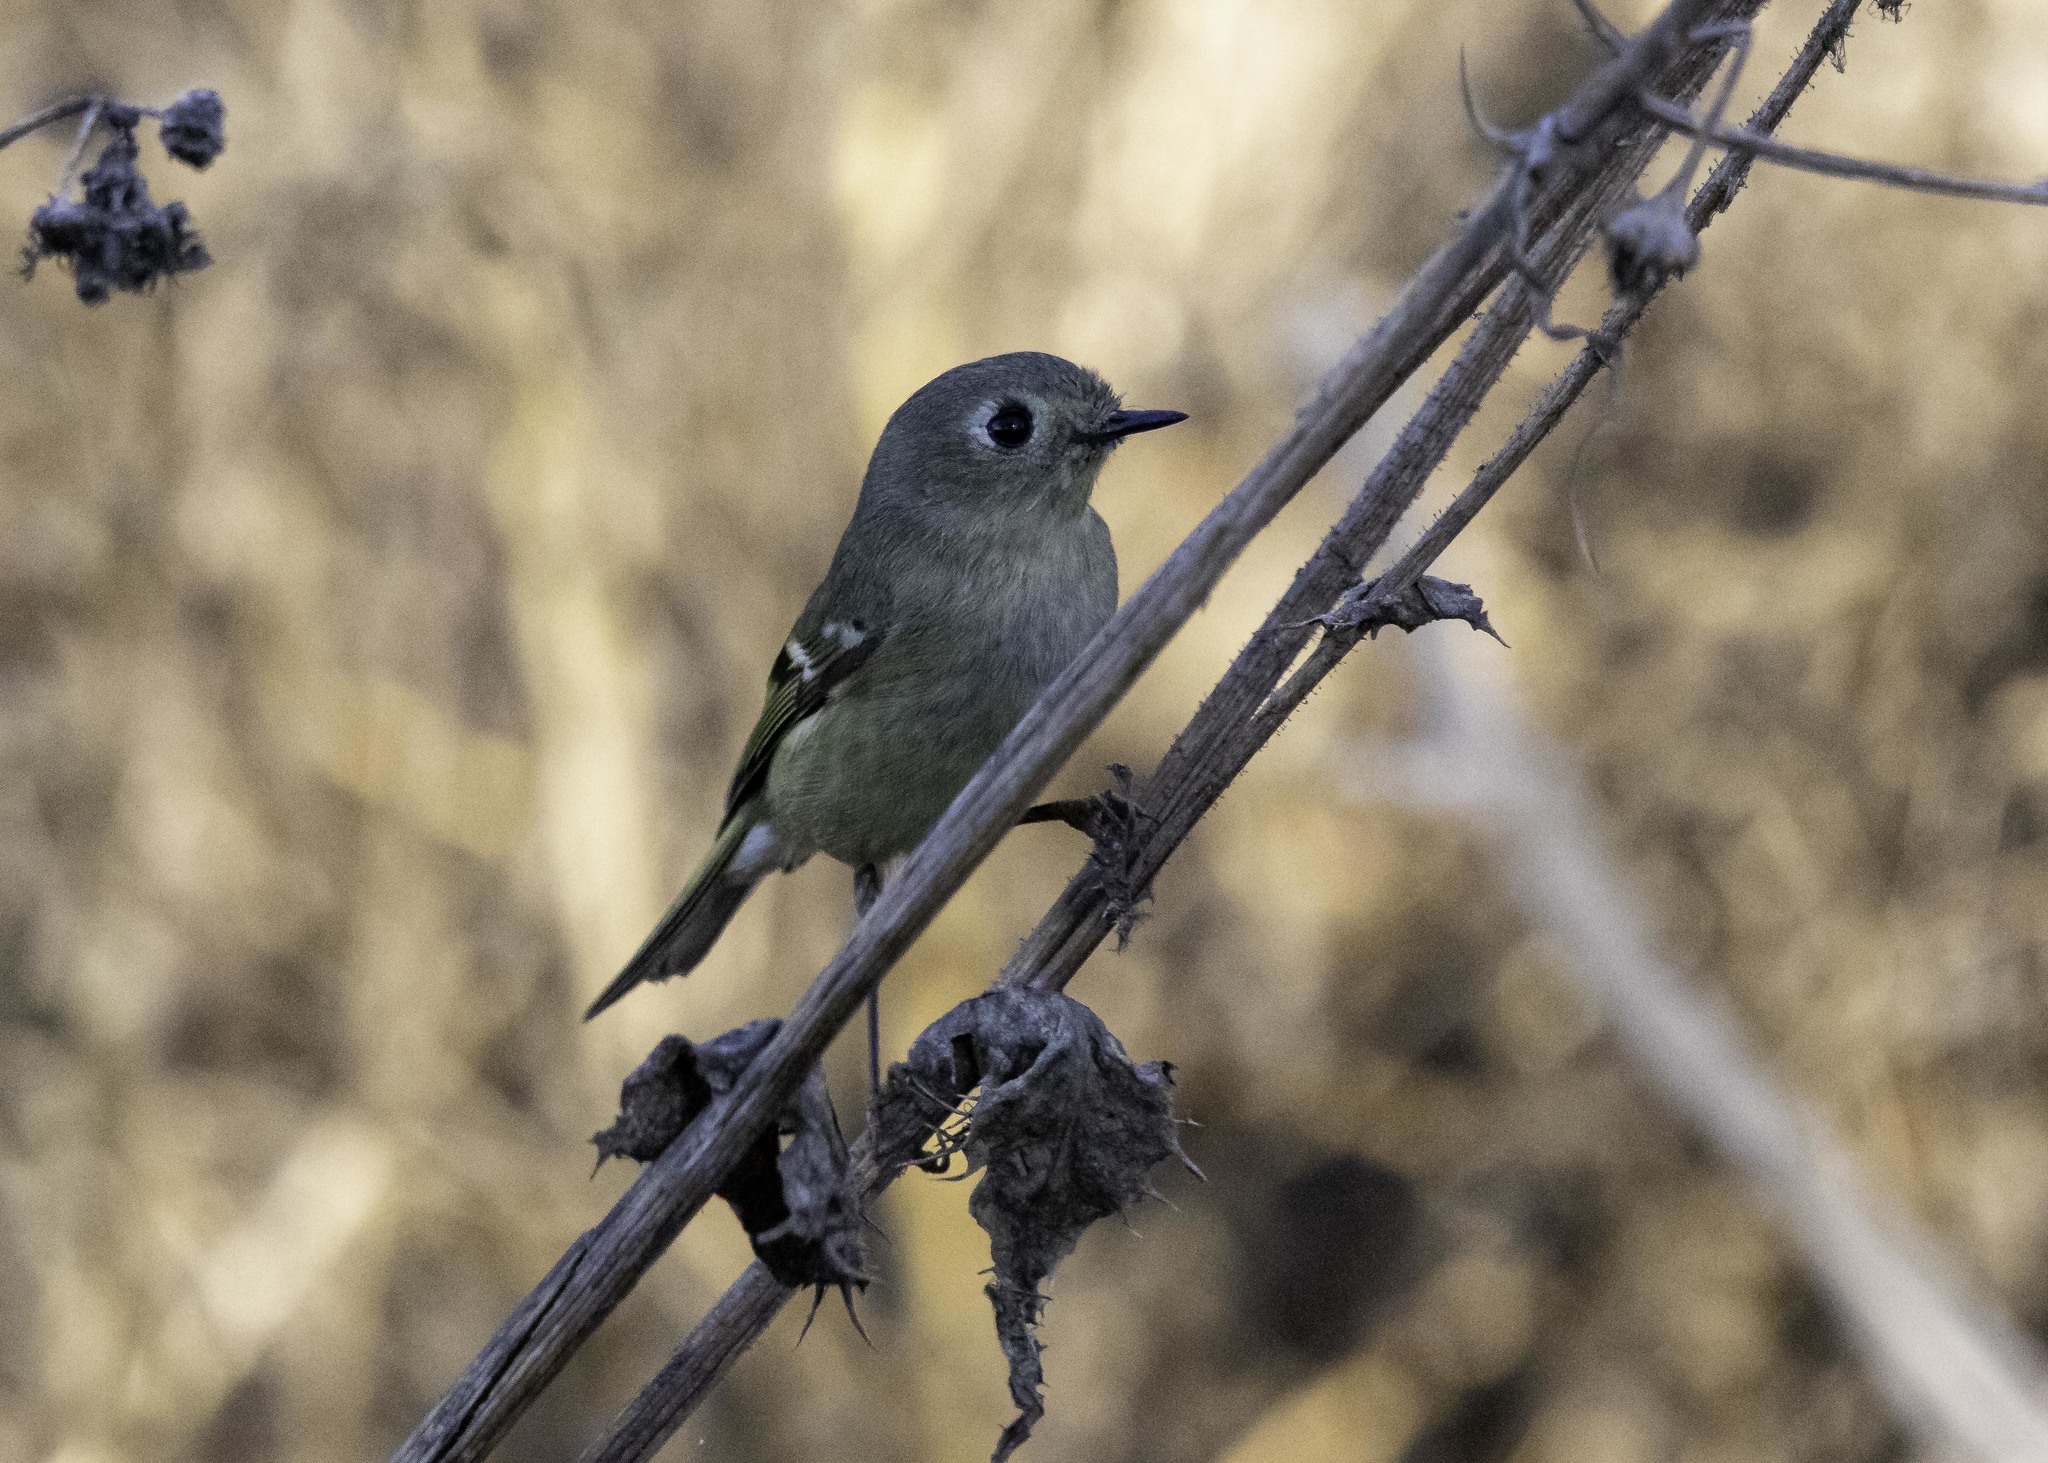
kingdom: Animalia
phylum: Chordata
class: Aves
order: Passeriformes
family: Regulidae
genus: Regulus
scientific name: Regulus calendula
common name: Ruby-crowned kinglet
